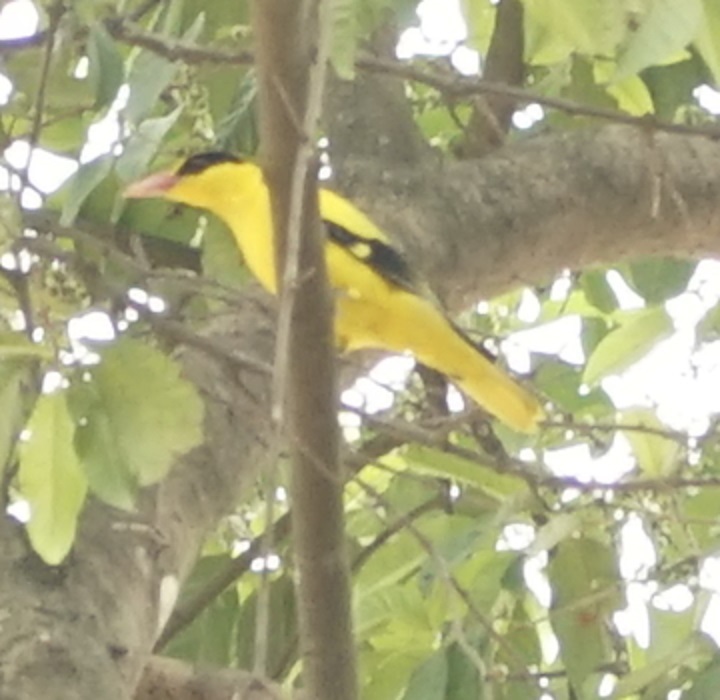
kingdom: Animalia
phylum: Chordata
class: Aves
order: Passeriformes
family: Oriolidae
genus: Oriolus
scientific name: Oriolus chinensis
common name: Black-naped oriole
